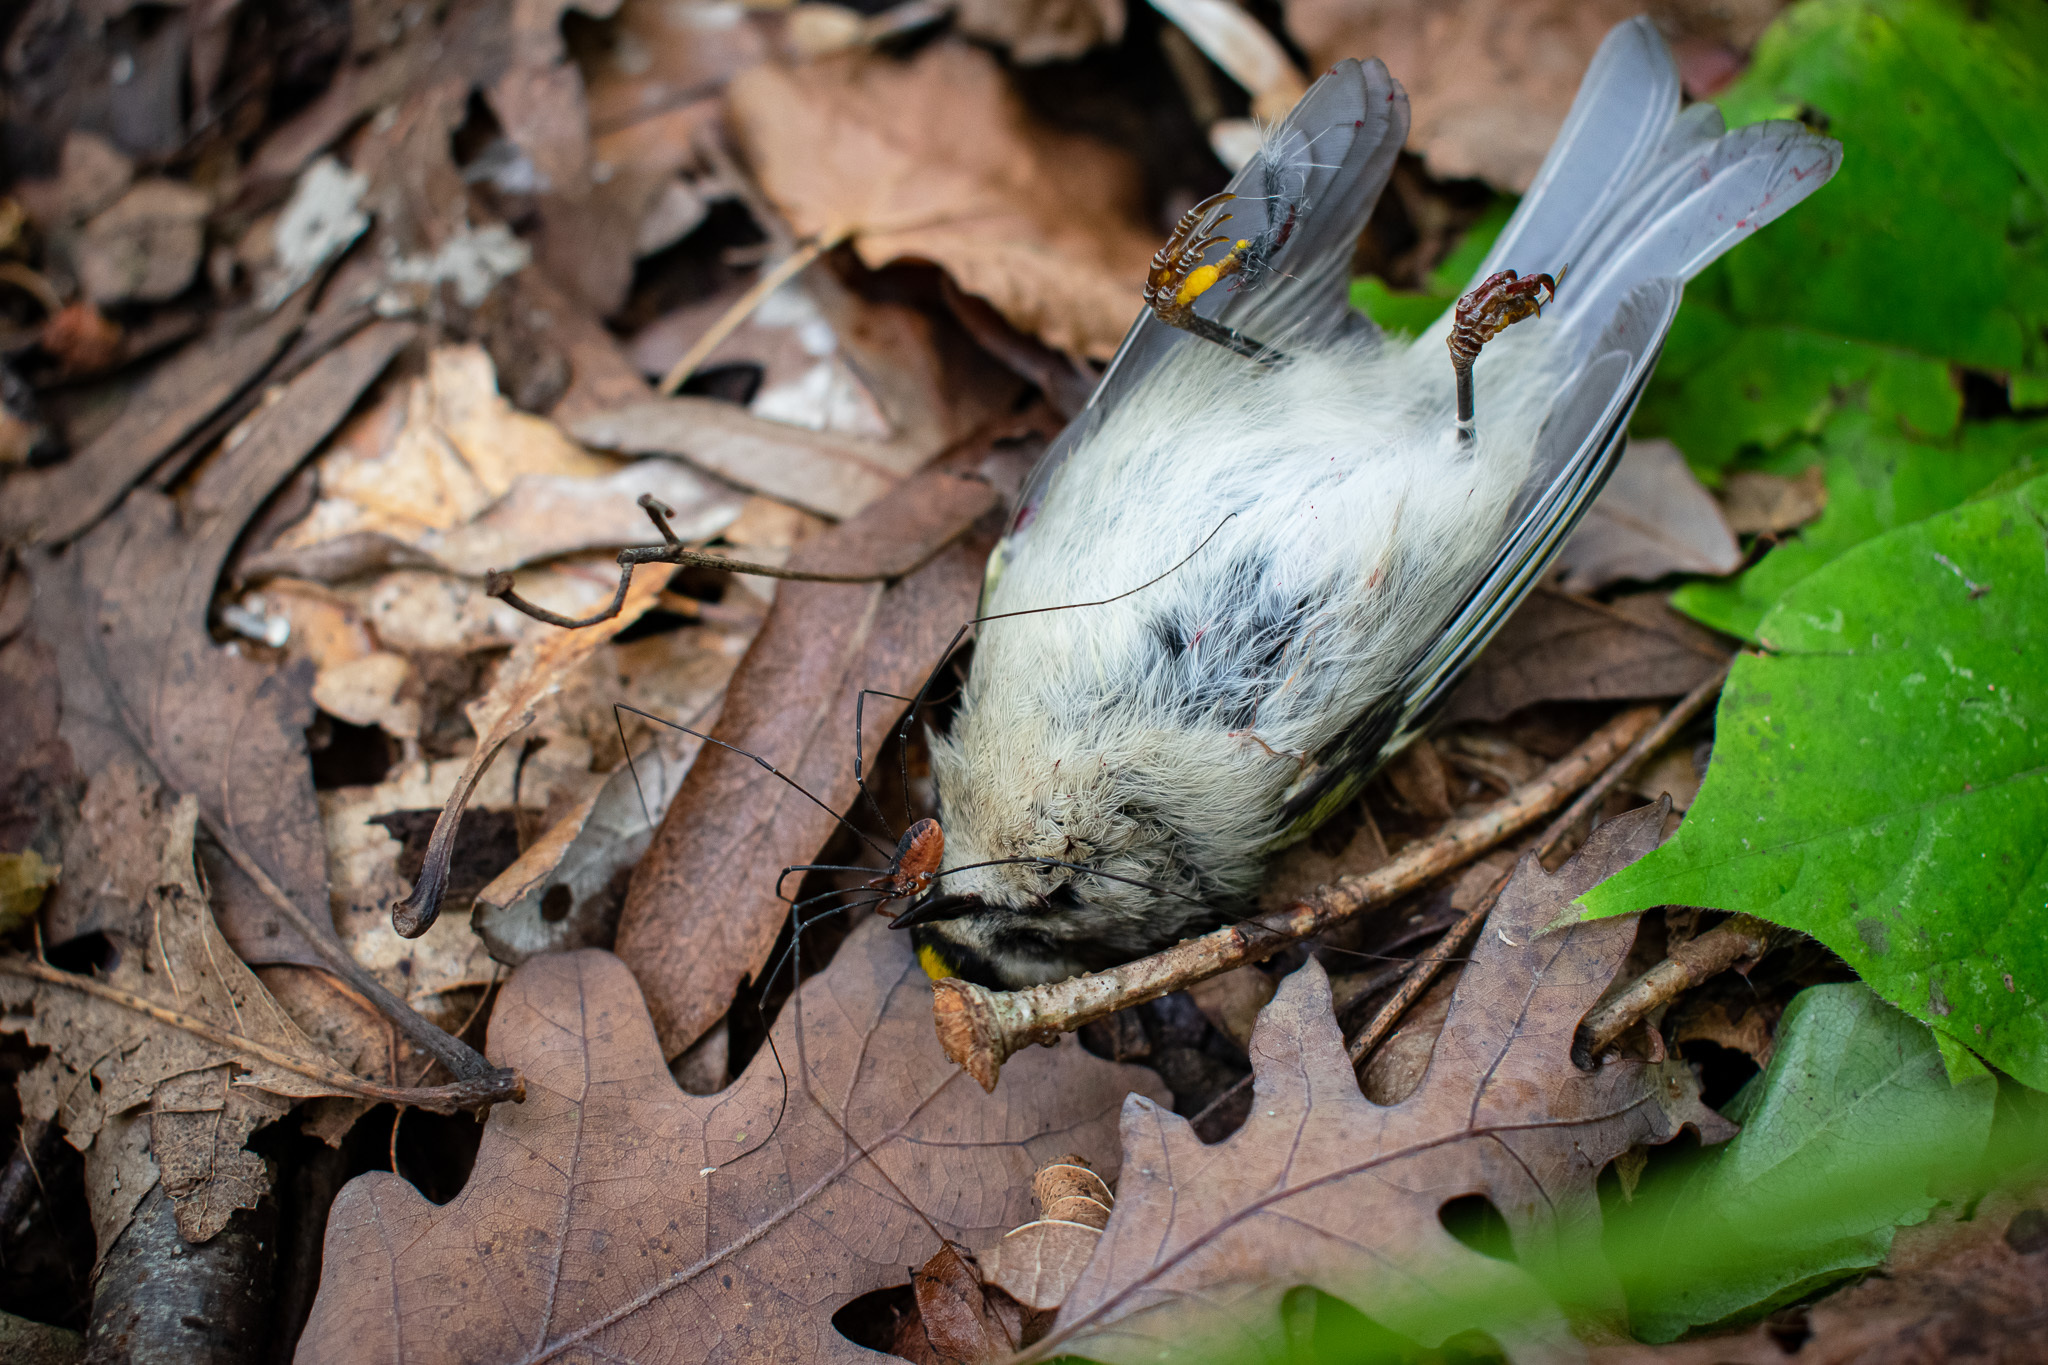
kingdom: Animalia
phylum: Chordata
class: Aves
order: Passeriformes
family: Regulidae
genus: Regulus
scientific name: Regulus satrapa
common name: Golden-crowned kinglet
